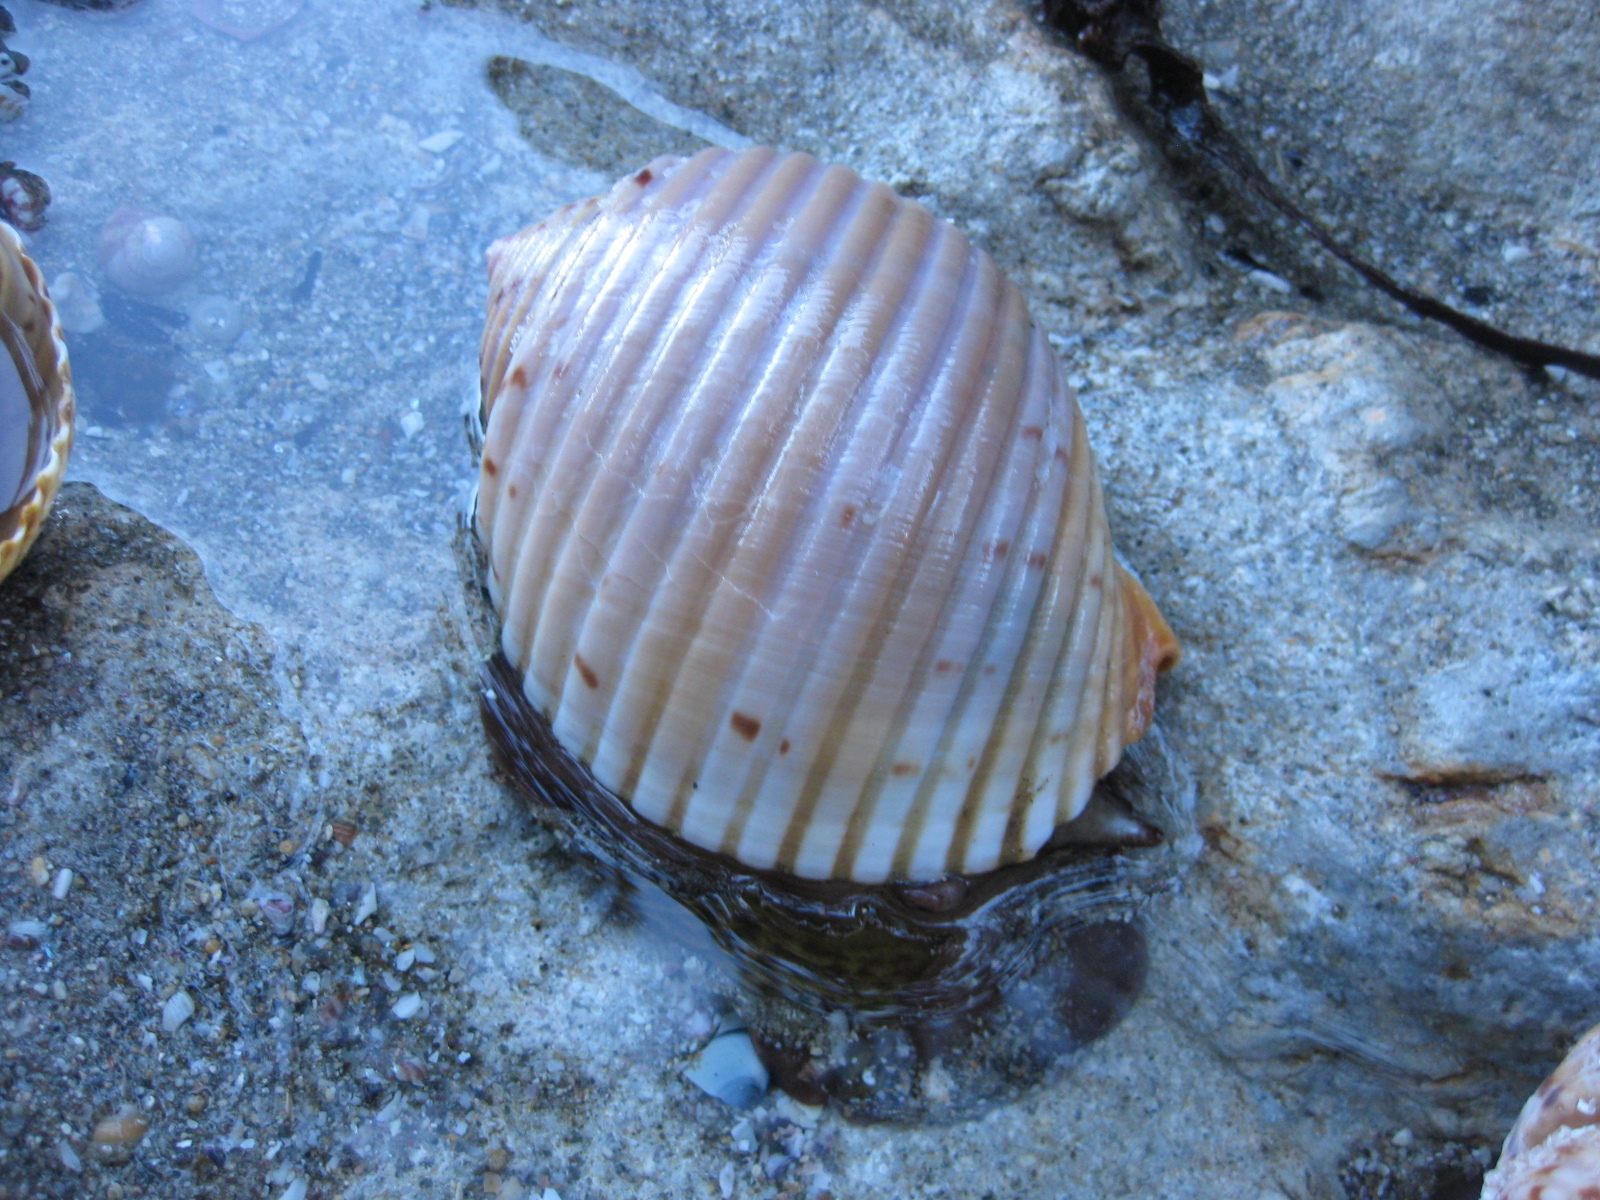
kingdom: Animalia
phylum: Mollusca
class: Gastropoda
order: Littorinimorpha
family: Tonnidae
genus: Tonna
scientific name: Tonna tankervillii
